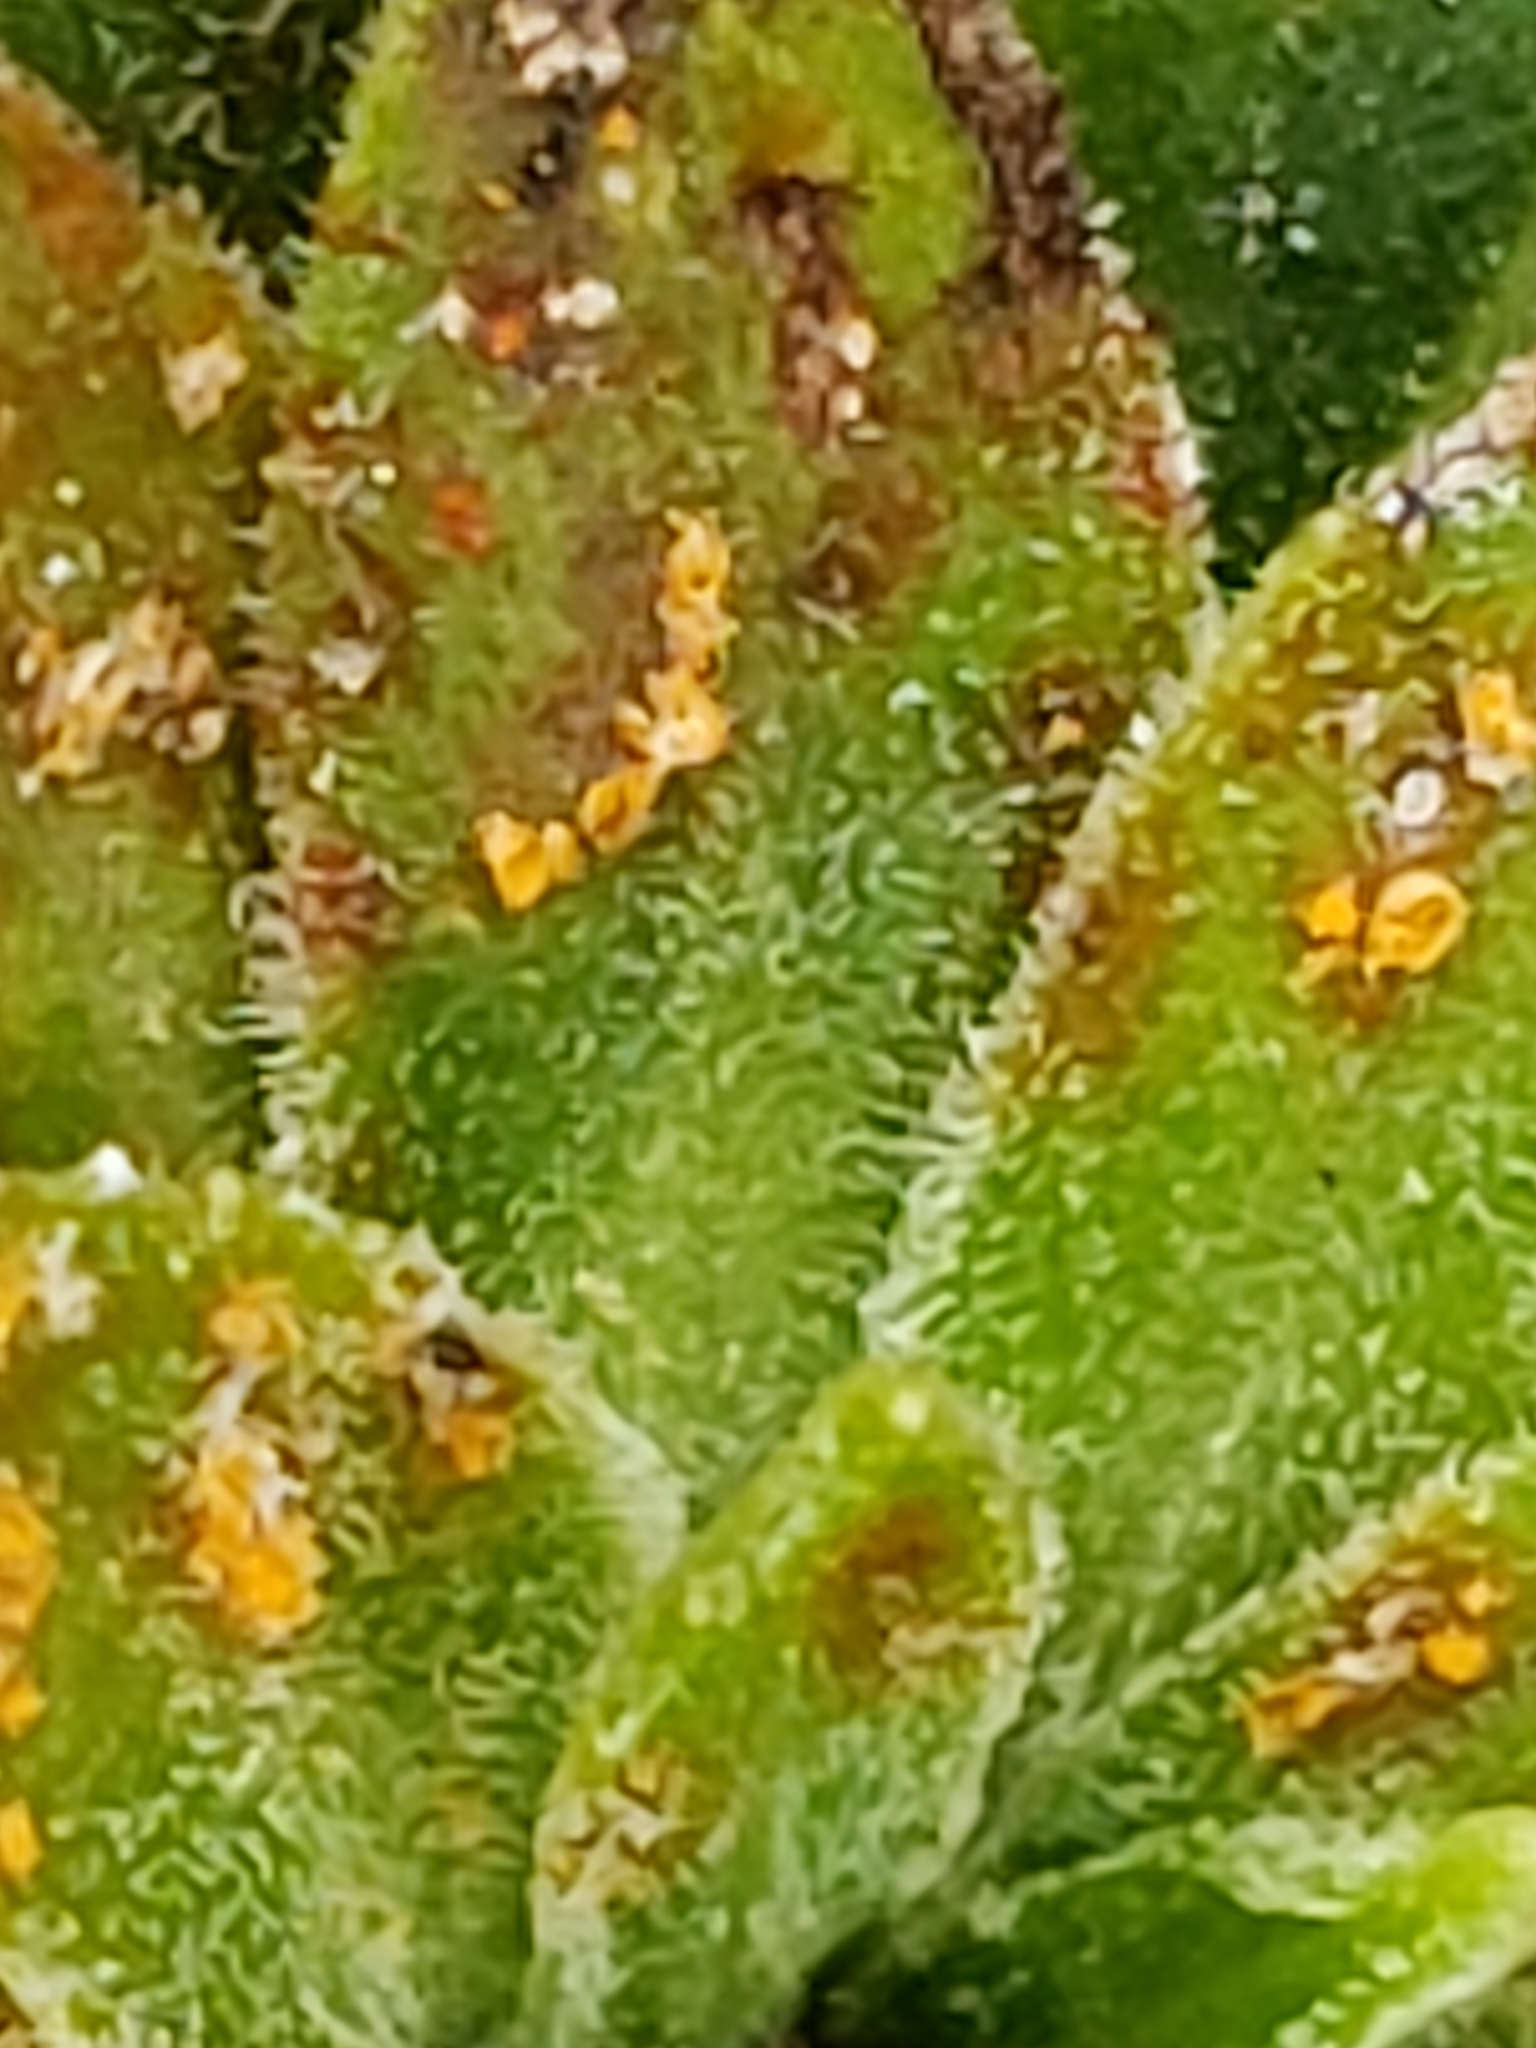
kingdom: Animalia
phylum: Arthropoda
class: Insecta
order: Diptera
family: Tephritidae
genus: Procecidochares
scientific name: Procecidochares atra
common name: Goldenrod brussels sprout gall fly
